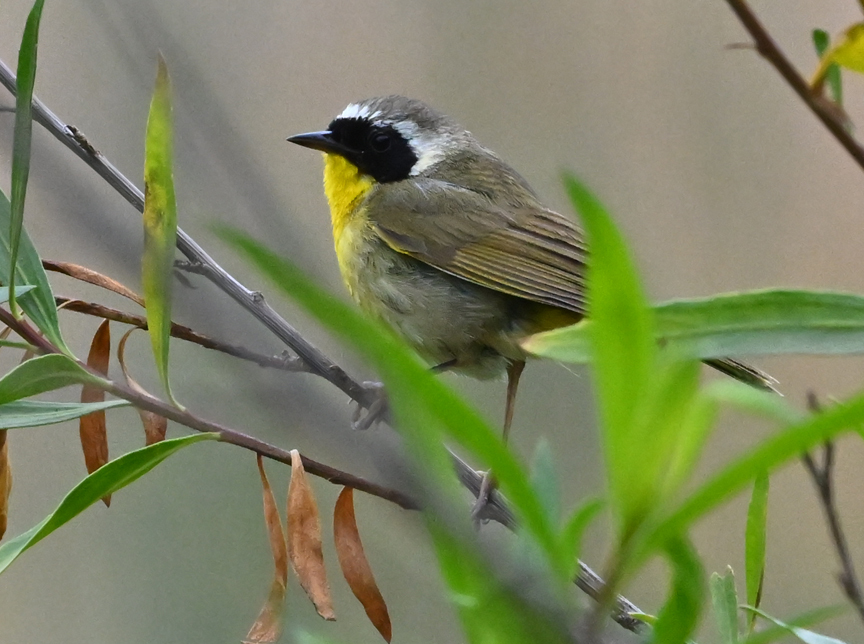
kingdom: Animalia
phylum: Chordata
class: Aves
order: Passeriformes
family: Parulidae
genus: Geothlypis
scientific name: Geothlypis trichas
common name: Common yellowthroat
